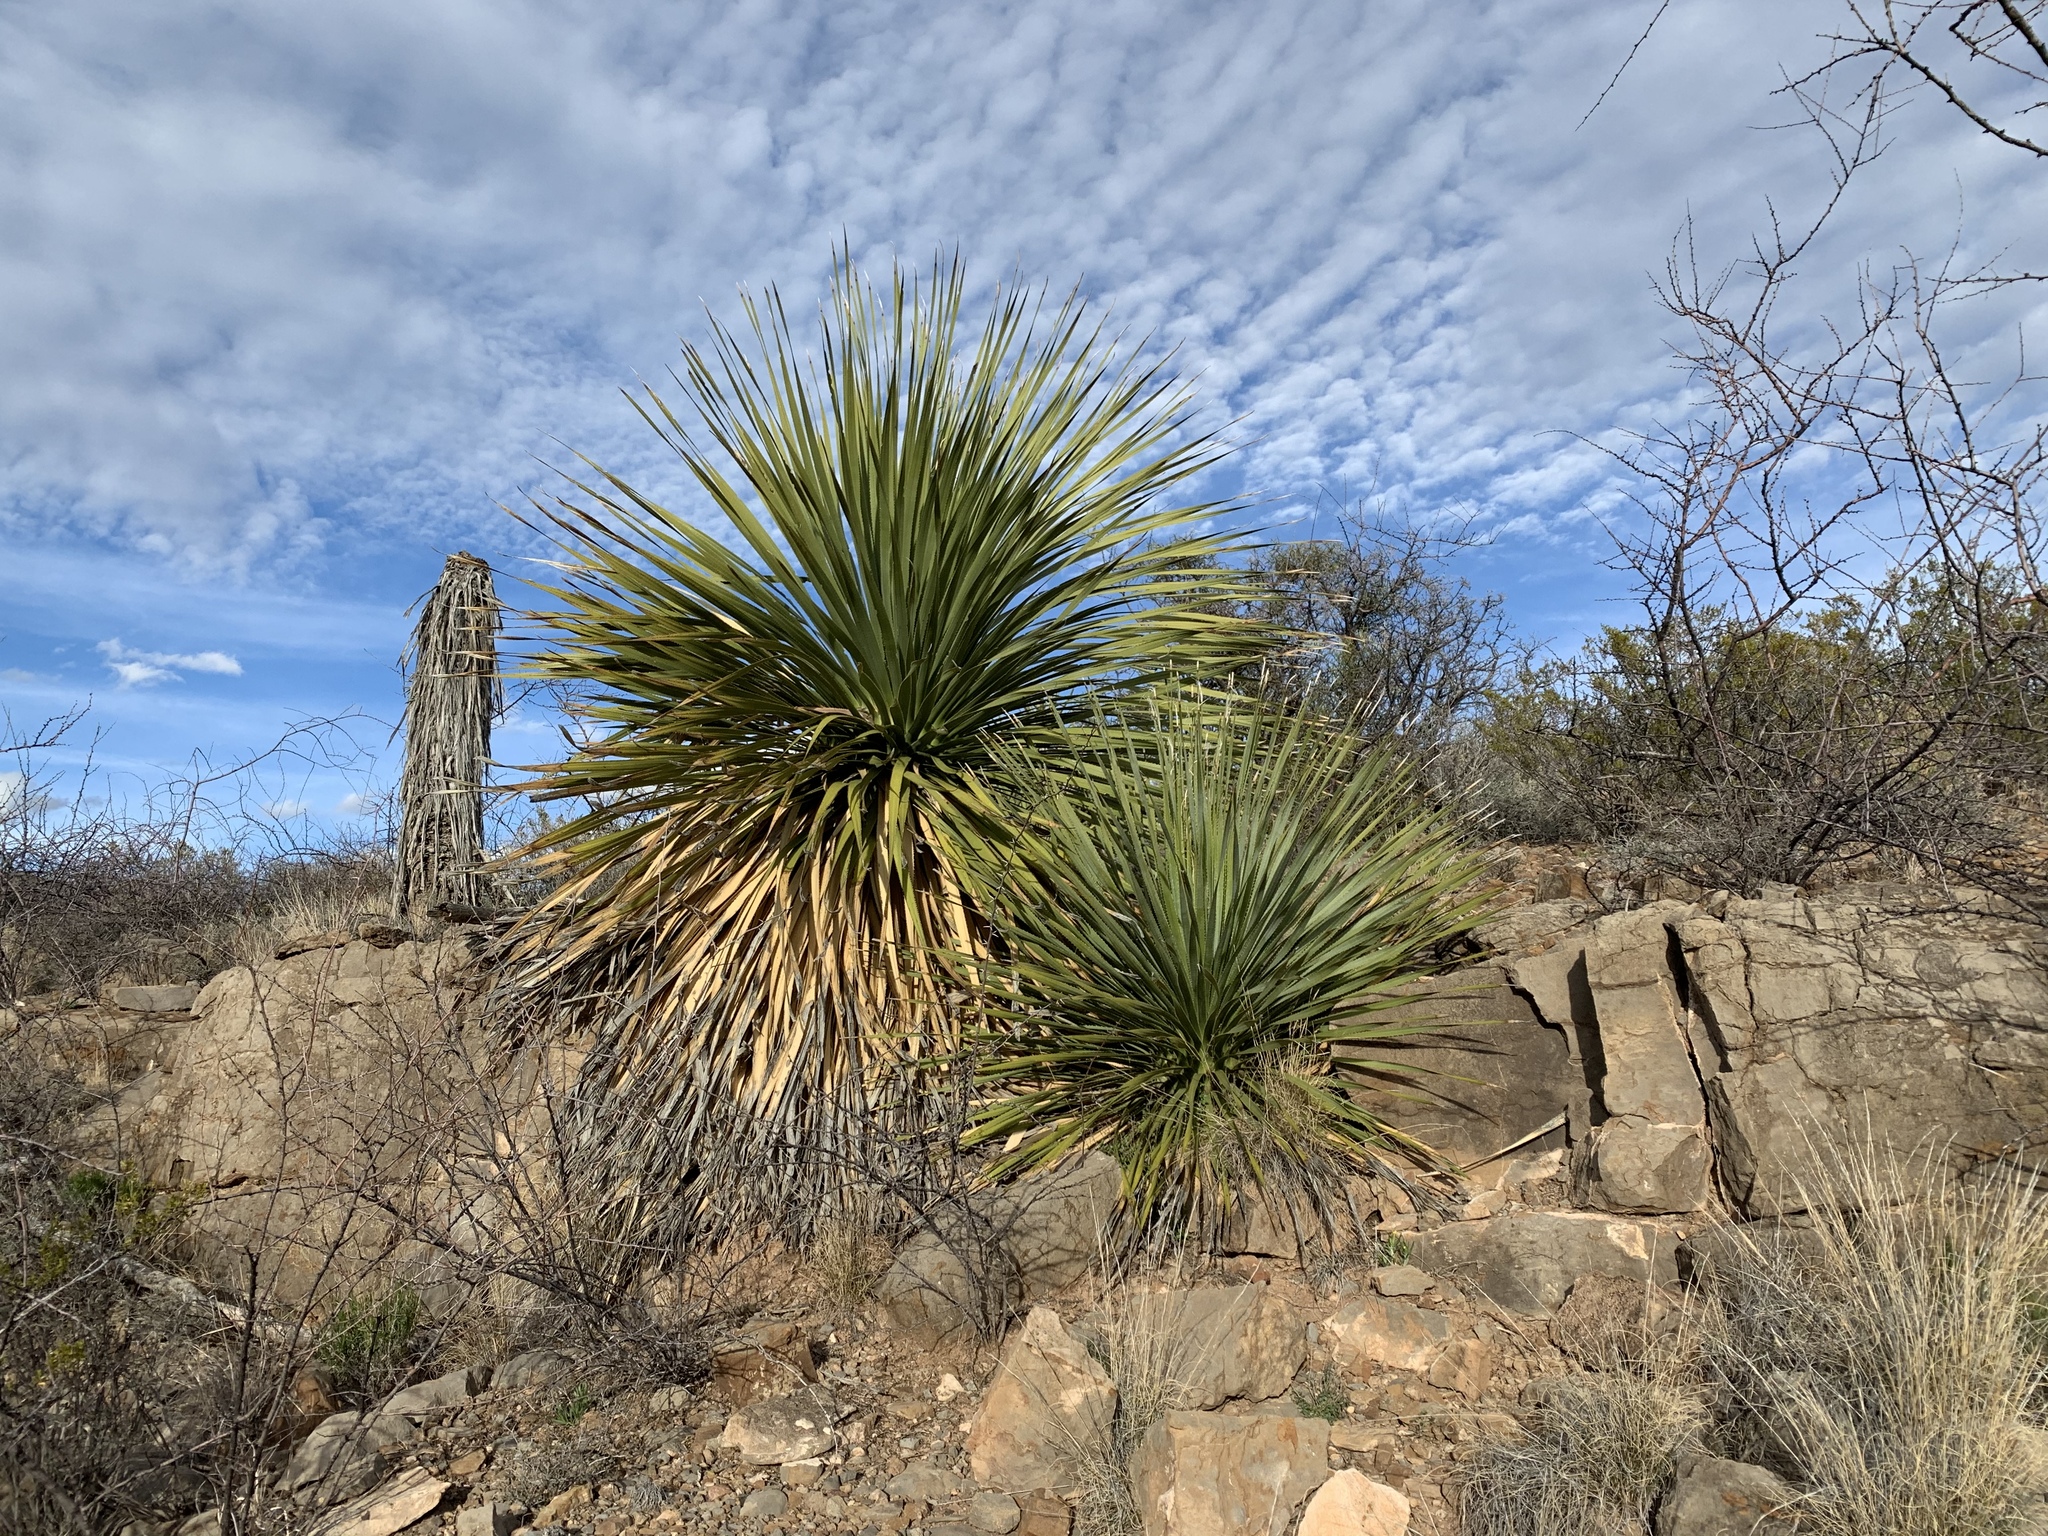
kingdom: Plantae
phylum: Tracheophyta
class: Liliopsida
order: Asparagales
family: Asparagaceae
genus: Dasylirion
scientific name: Dasylirion wheeleri
